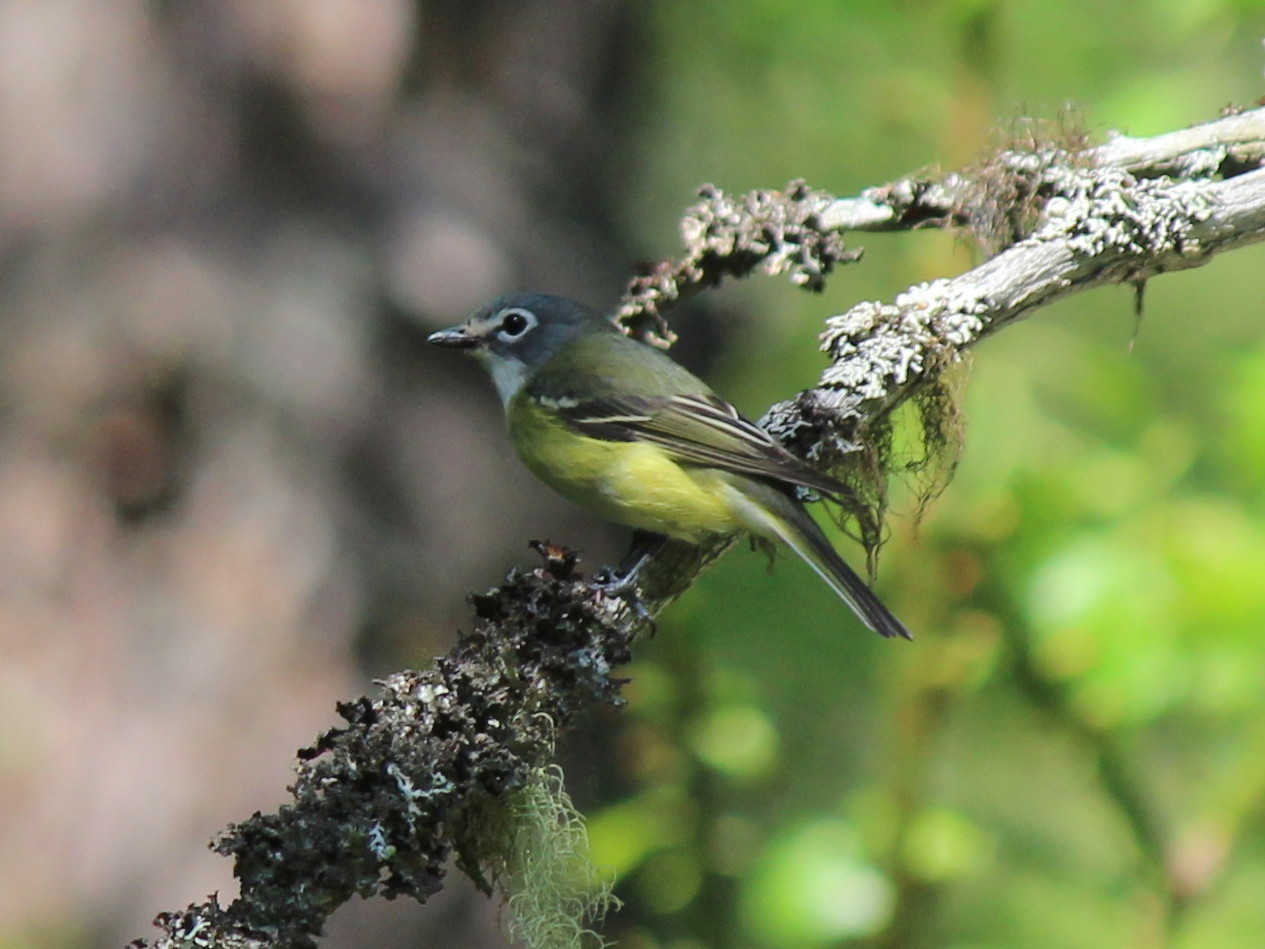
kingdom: Animalia
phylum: Chordata
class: Aves
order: Passeriformes
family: Vireonidae
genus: Vireo
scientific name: Vireo solitarius
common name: Blue-headed vireo
